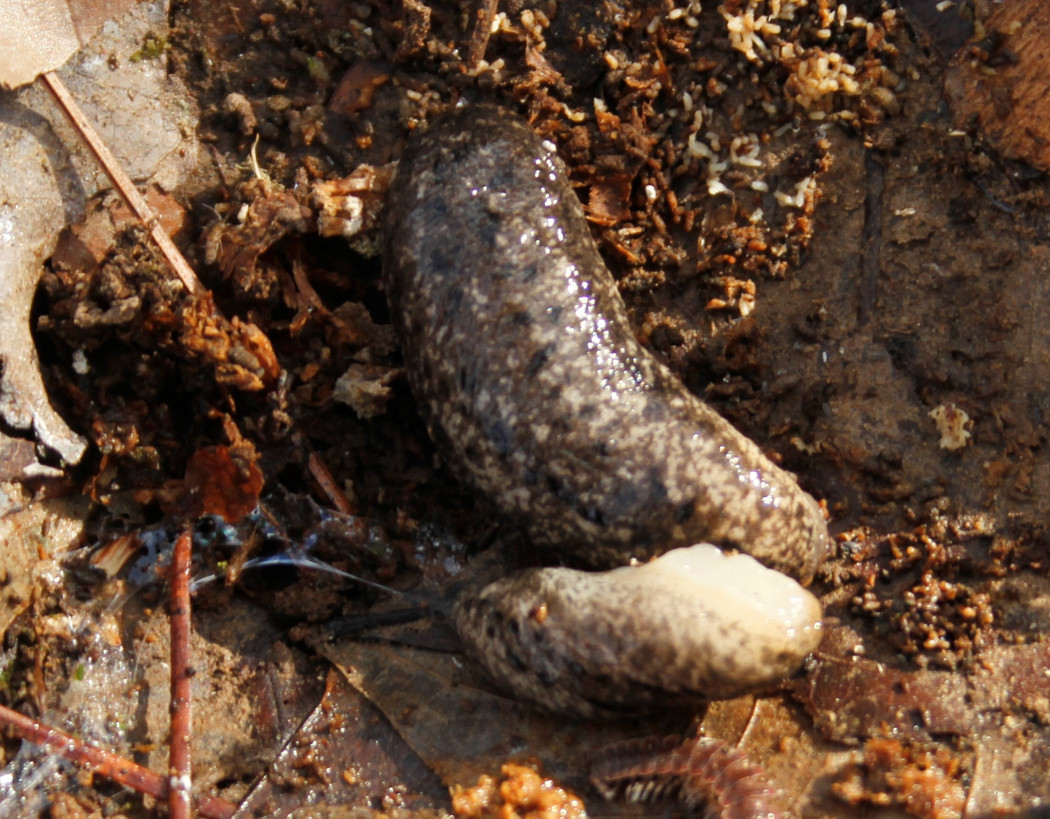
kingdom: Animalia
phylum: Mollusca
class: Gastropoda
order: Stylommatophora
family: Philomycidae
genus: Philomycus
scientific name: Philomycus carolinianus
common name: Carolina mantleslug
